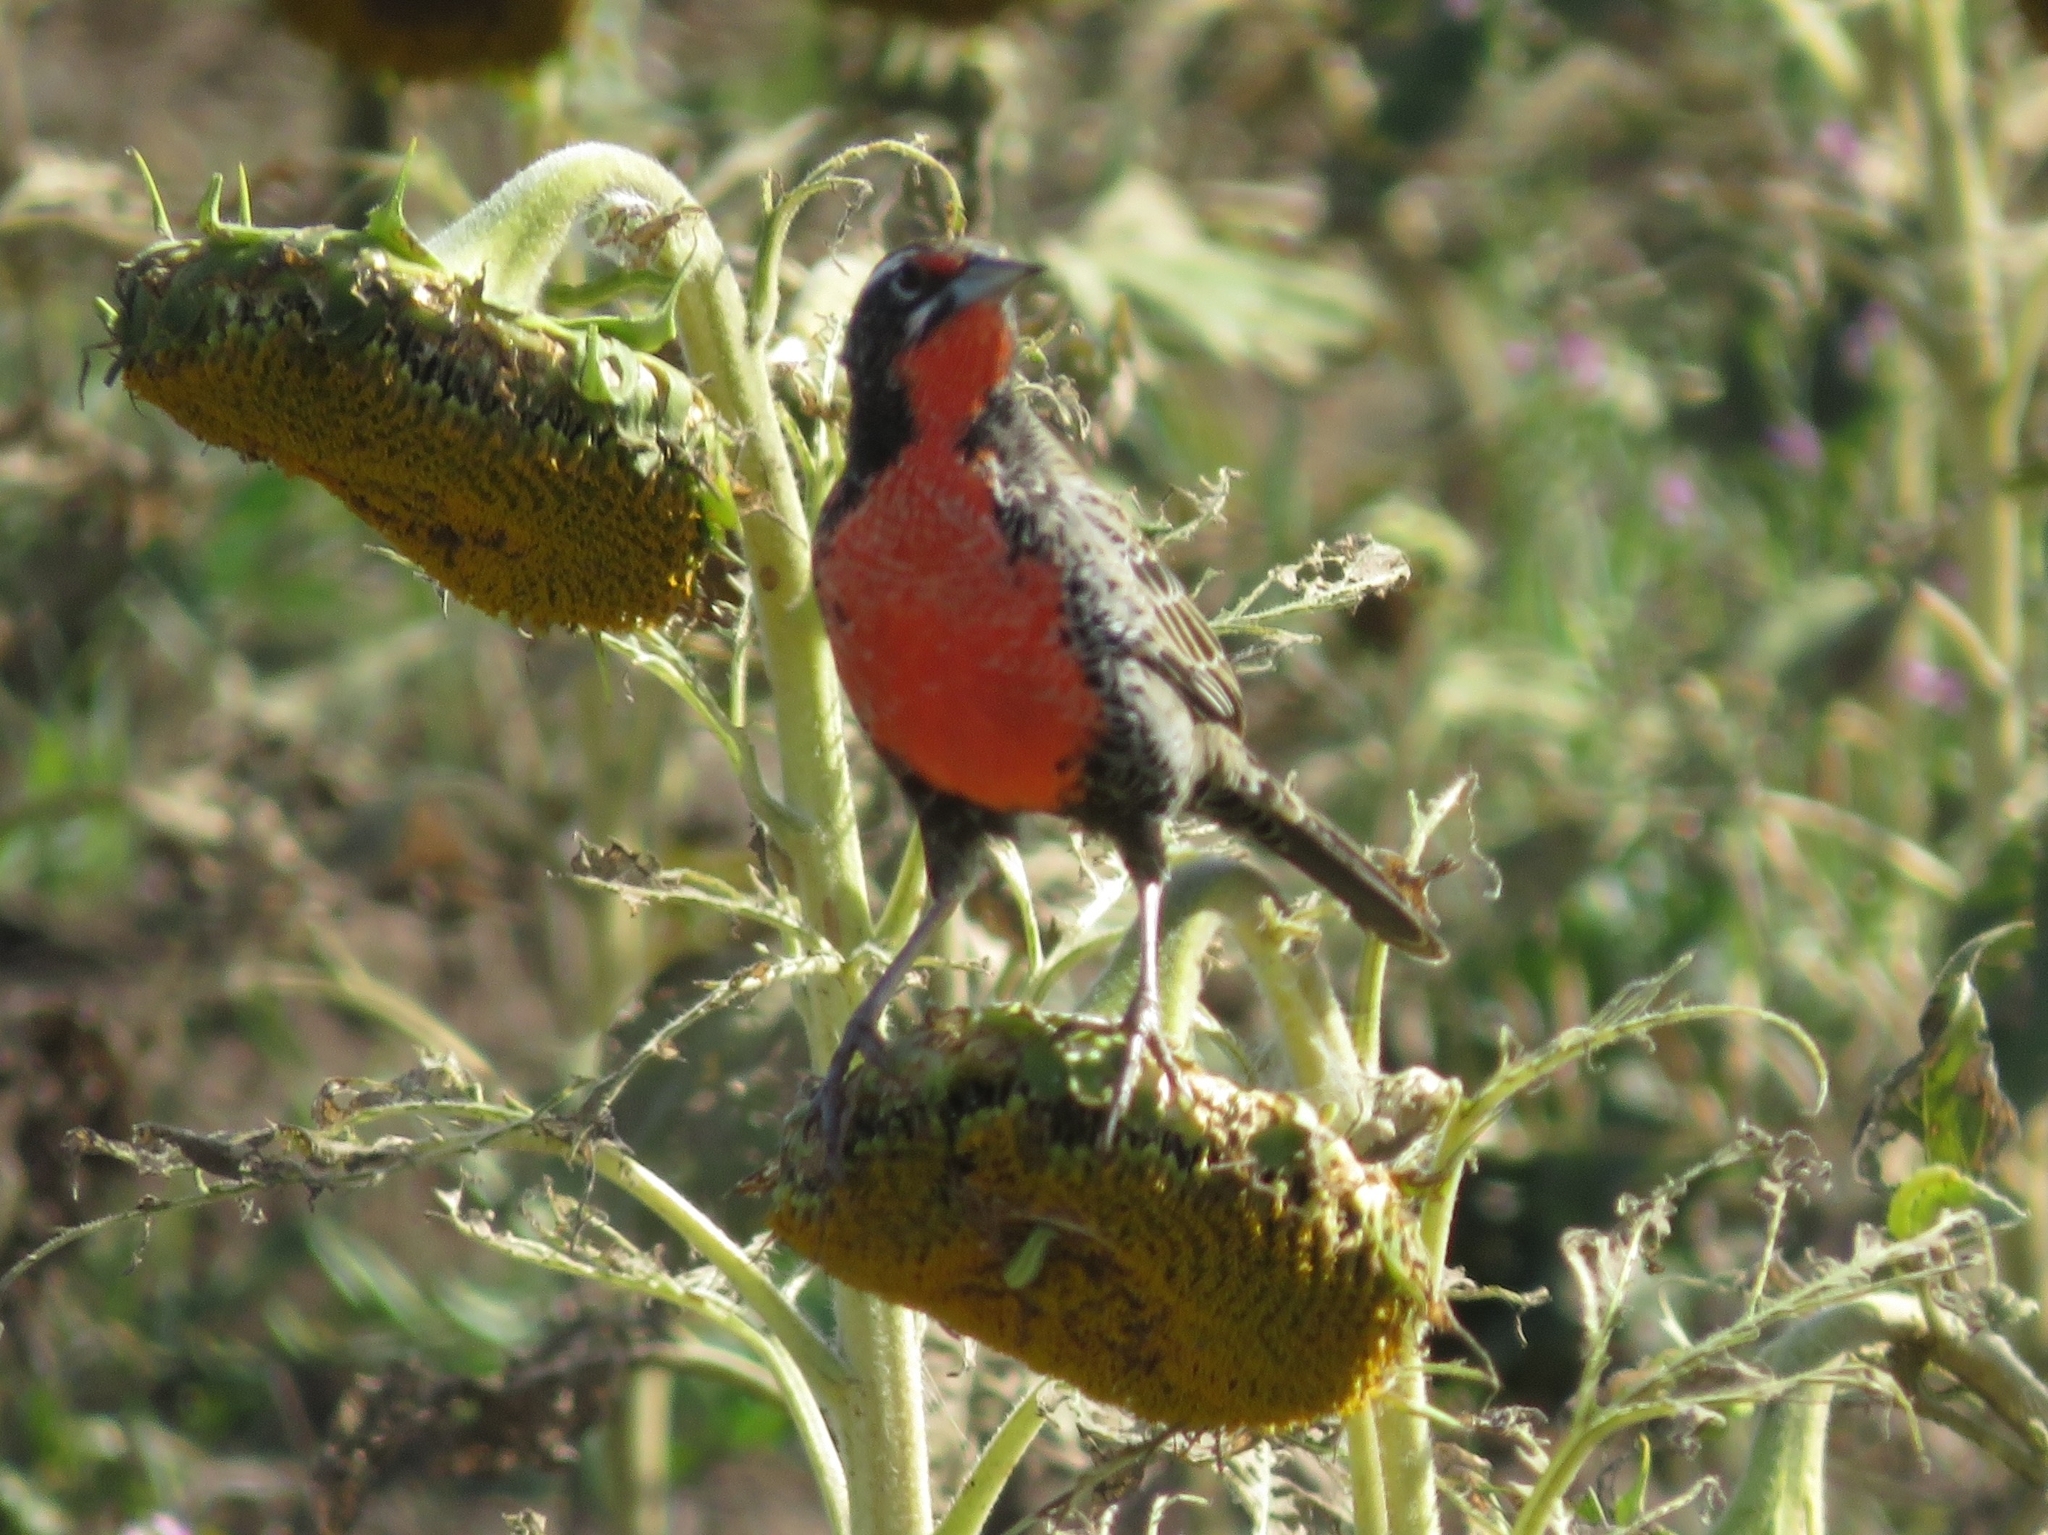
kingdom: Animalia
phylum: Chordata
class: Aves
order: Passeriformes
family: Icteridae
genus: Sturnella
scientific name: Sturnella loyca
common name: Long-tailed meadowlark
